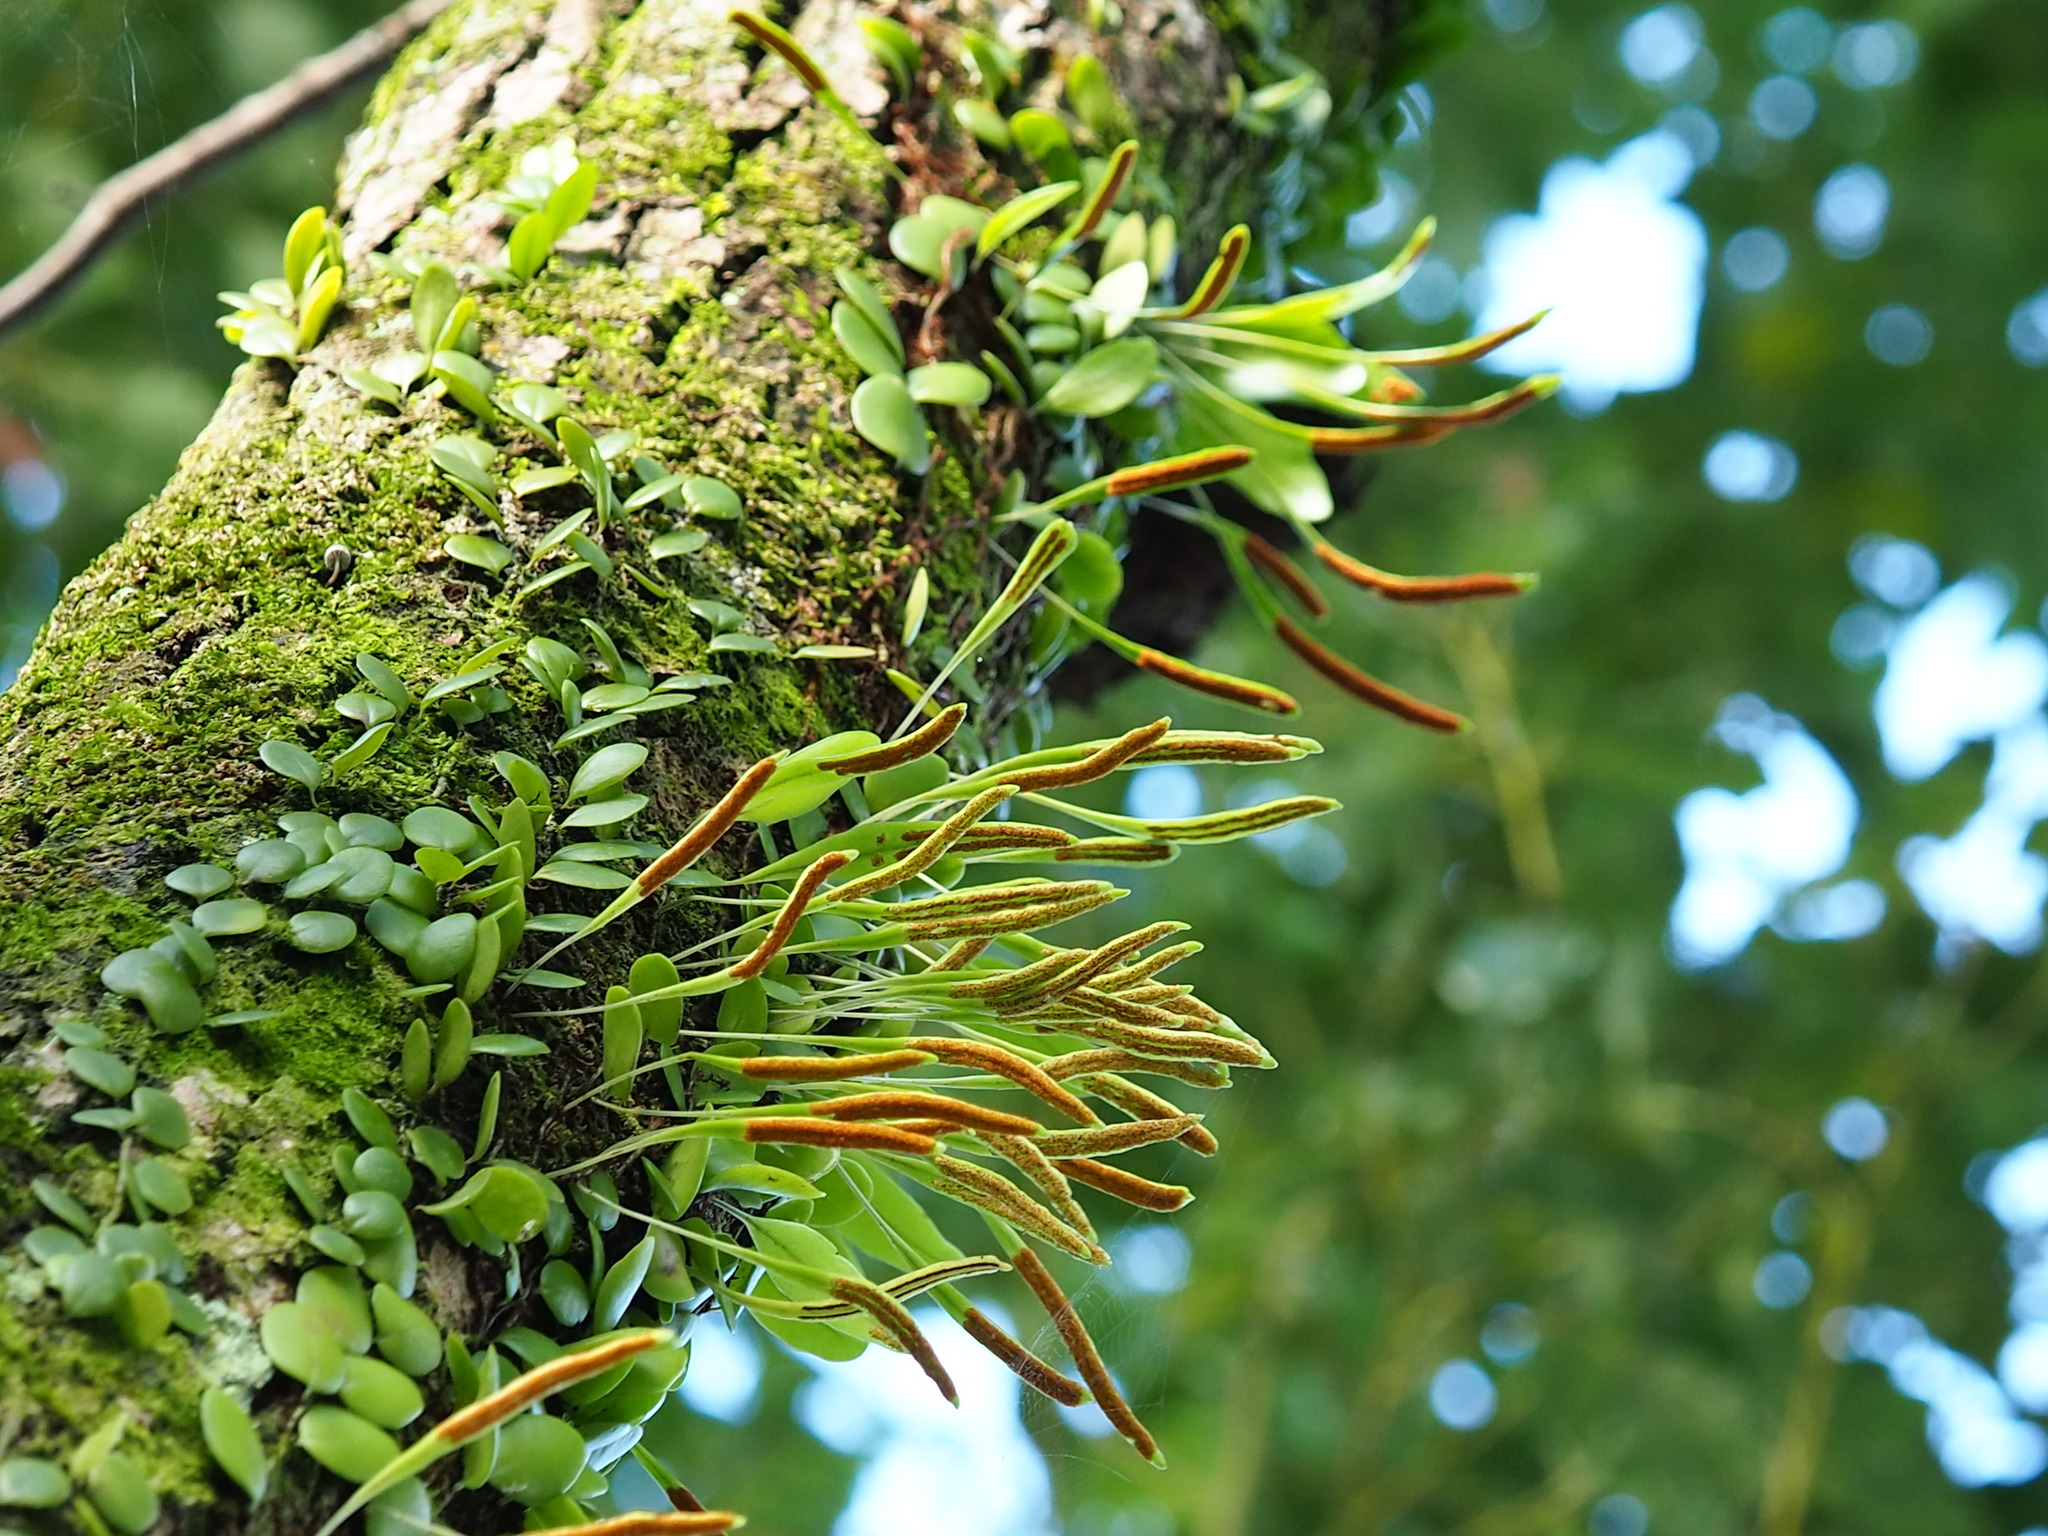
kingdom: Plantae
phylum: Tracheophyta
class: Polypodiopsida
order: Polypodiales
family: Polypodiaceae
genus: Lepisorus
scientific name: Lepisorus microphyllus
